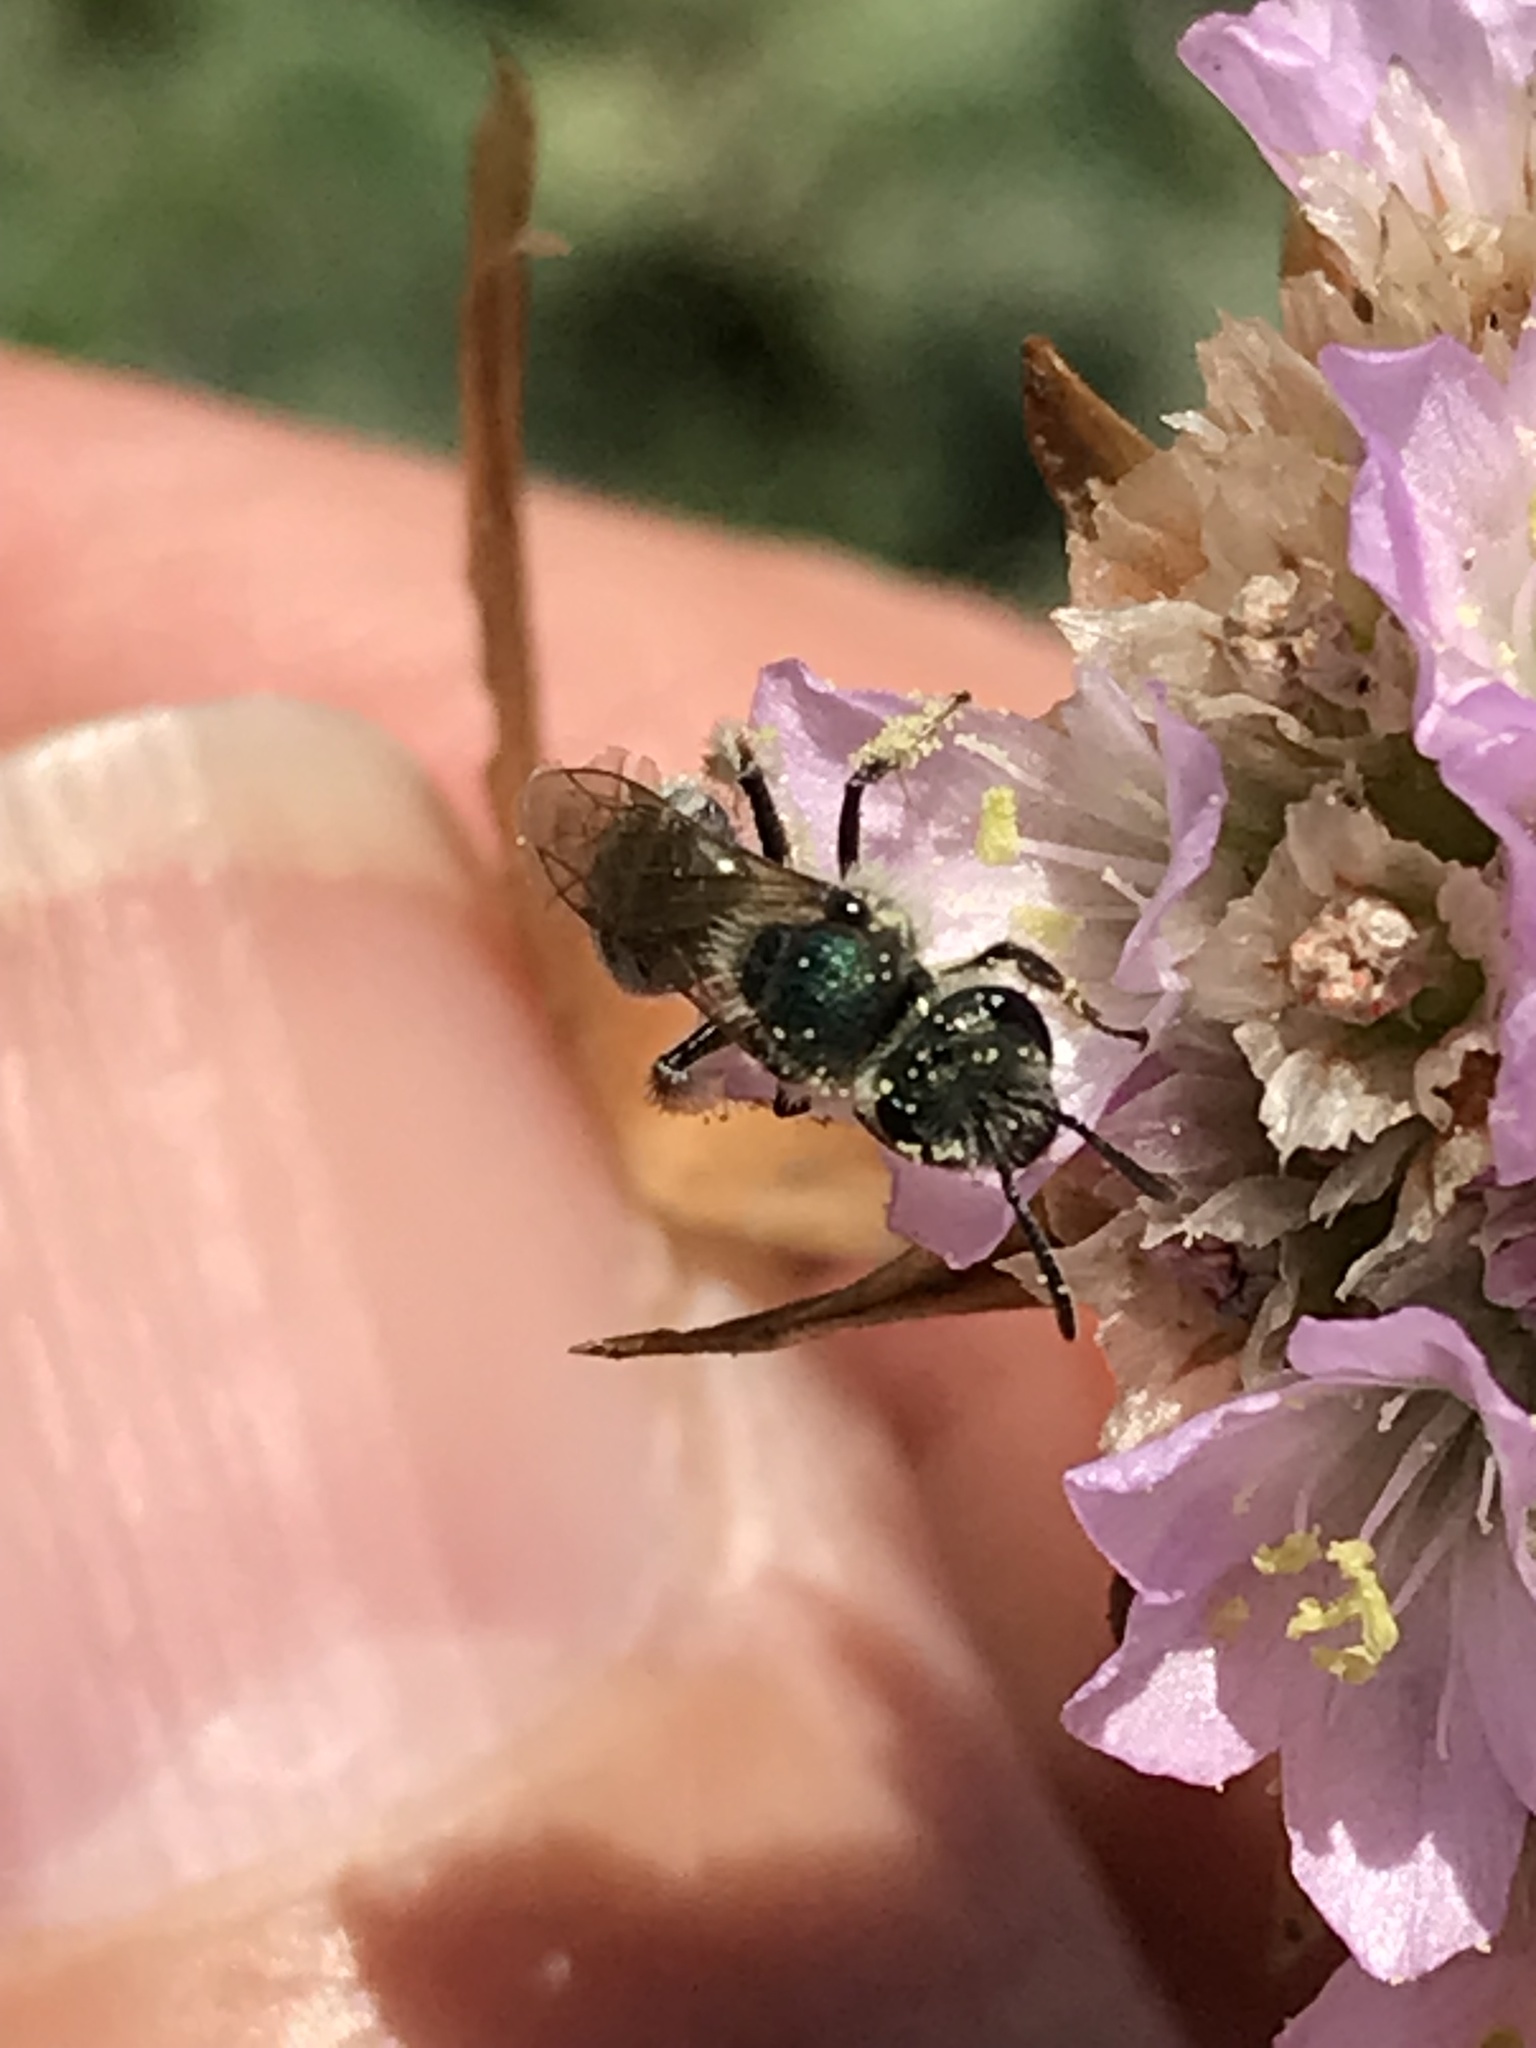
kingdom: Animalia
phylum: Arthropoda
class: Insecta
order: Hymenoptera
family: Halictidae
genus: Lasioglossum
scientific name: Lasioglossum pavonotum
